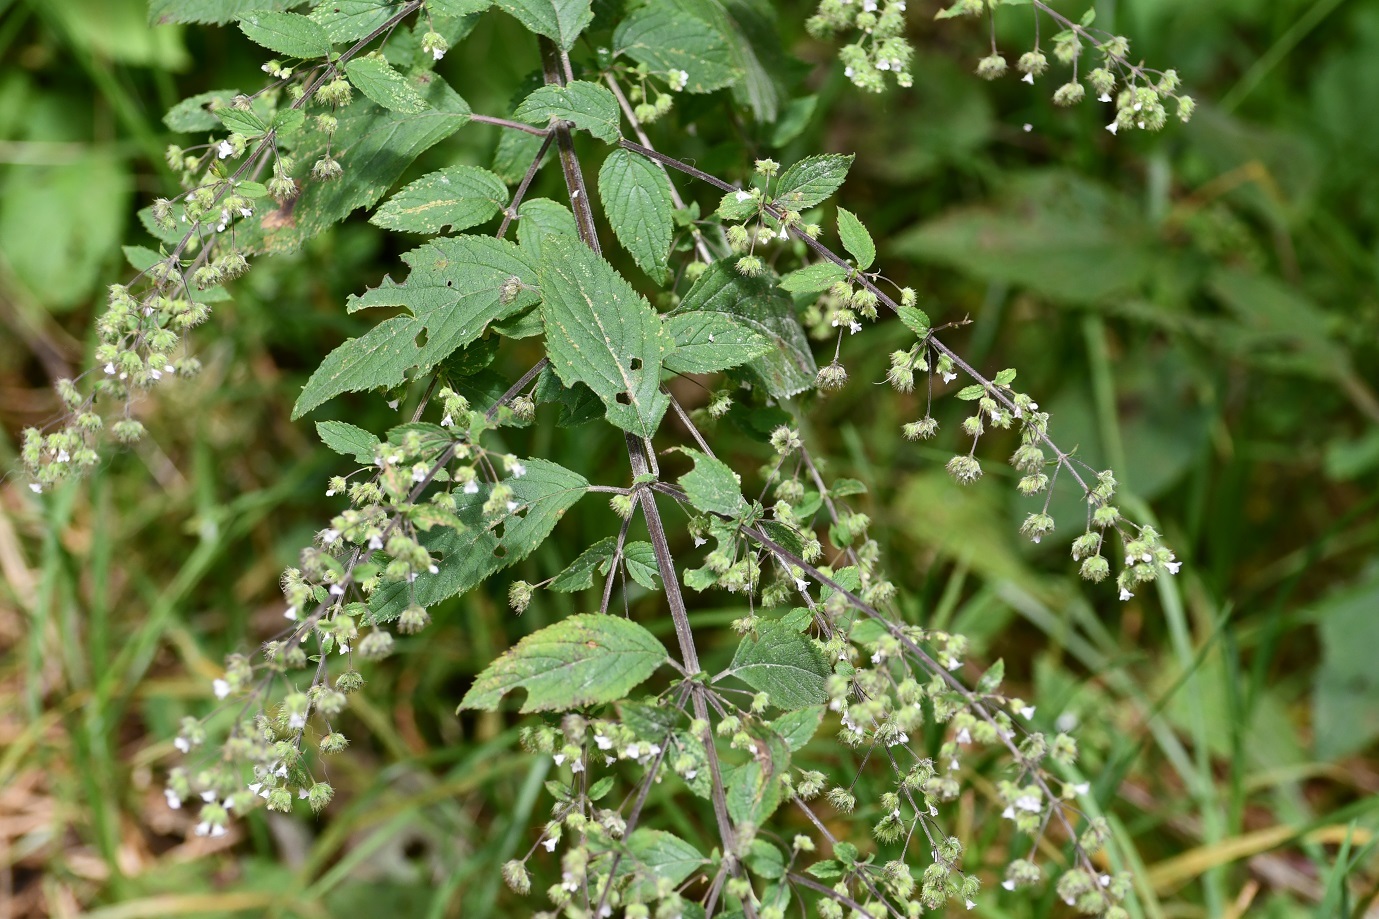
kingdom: Plantae
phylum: Tracheophyta
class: Magnoliopsida
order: Lamiales
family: Lamiaceae
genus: Mesosphaerum
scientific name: Mesosphaerum urticoides
